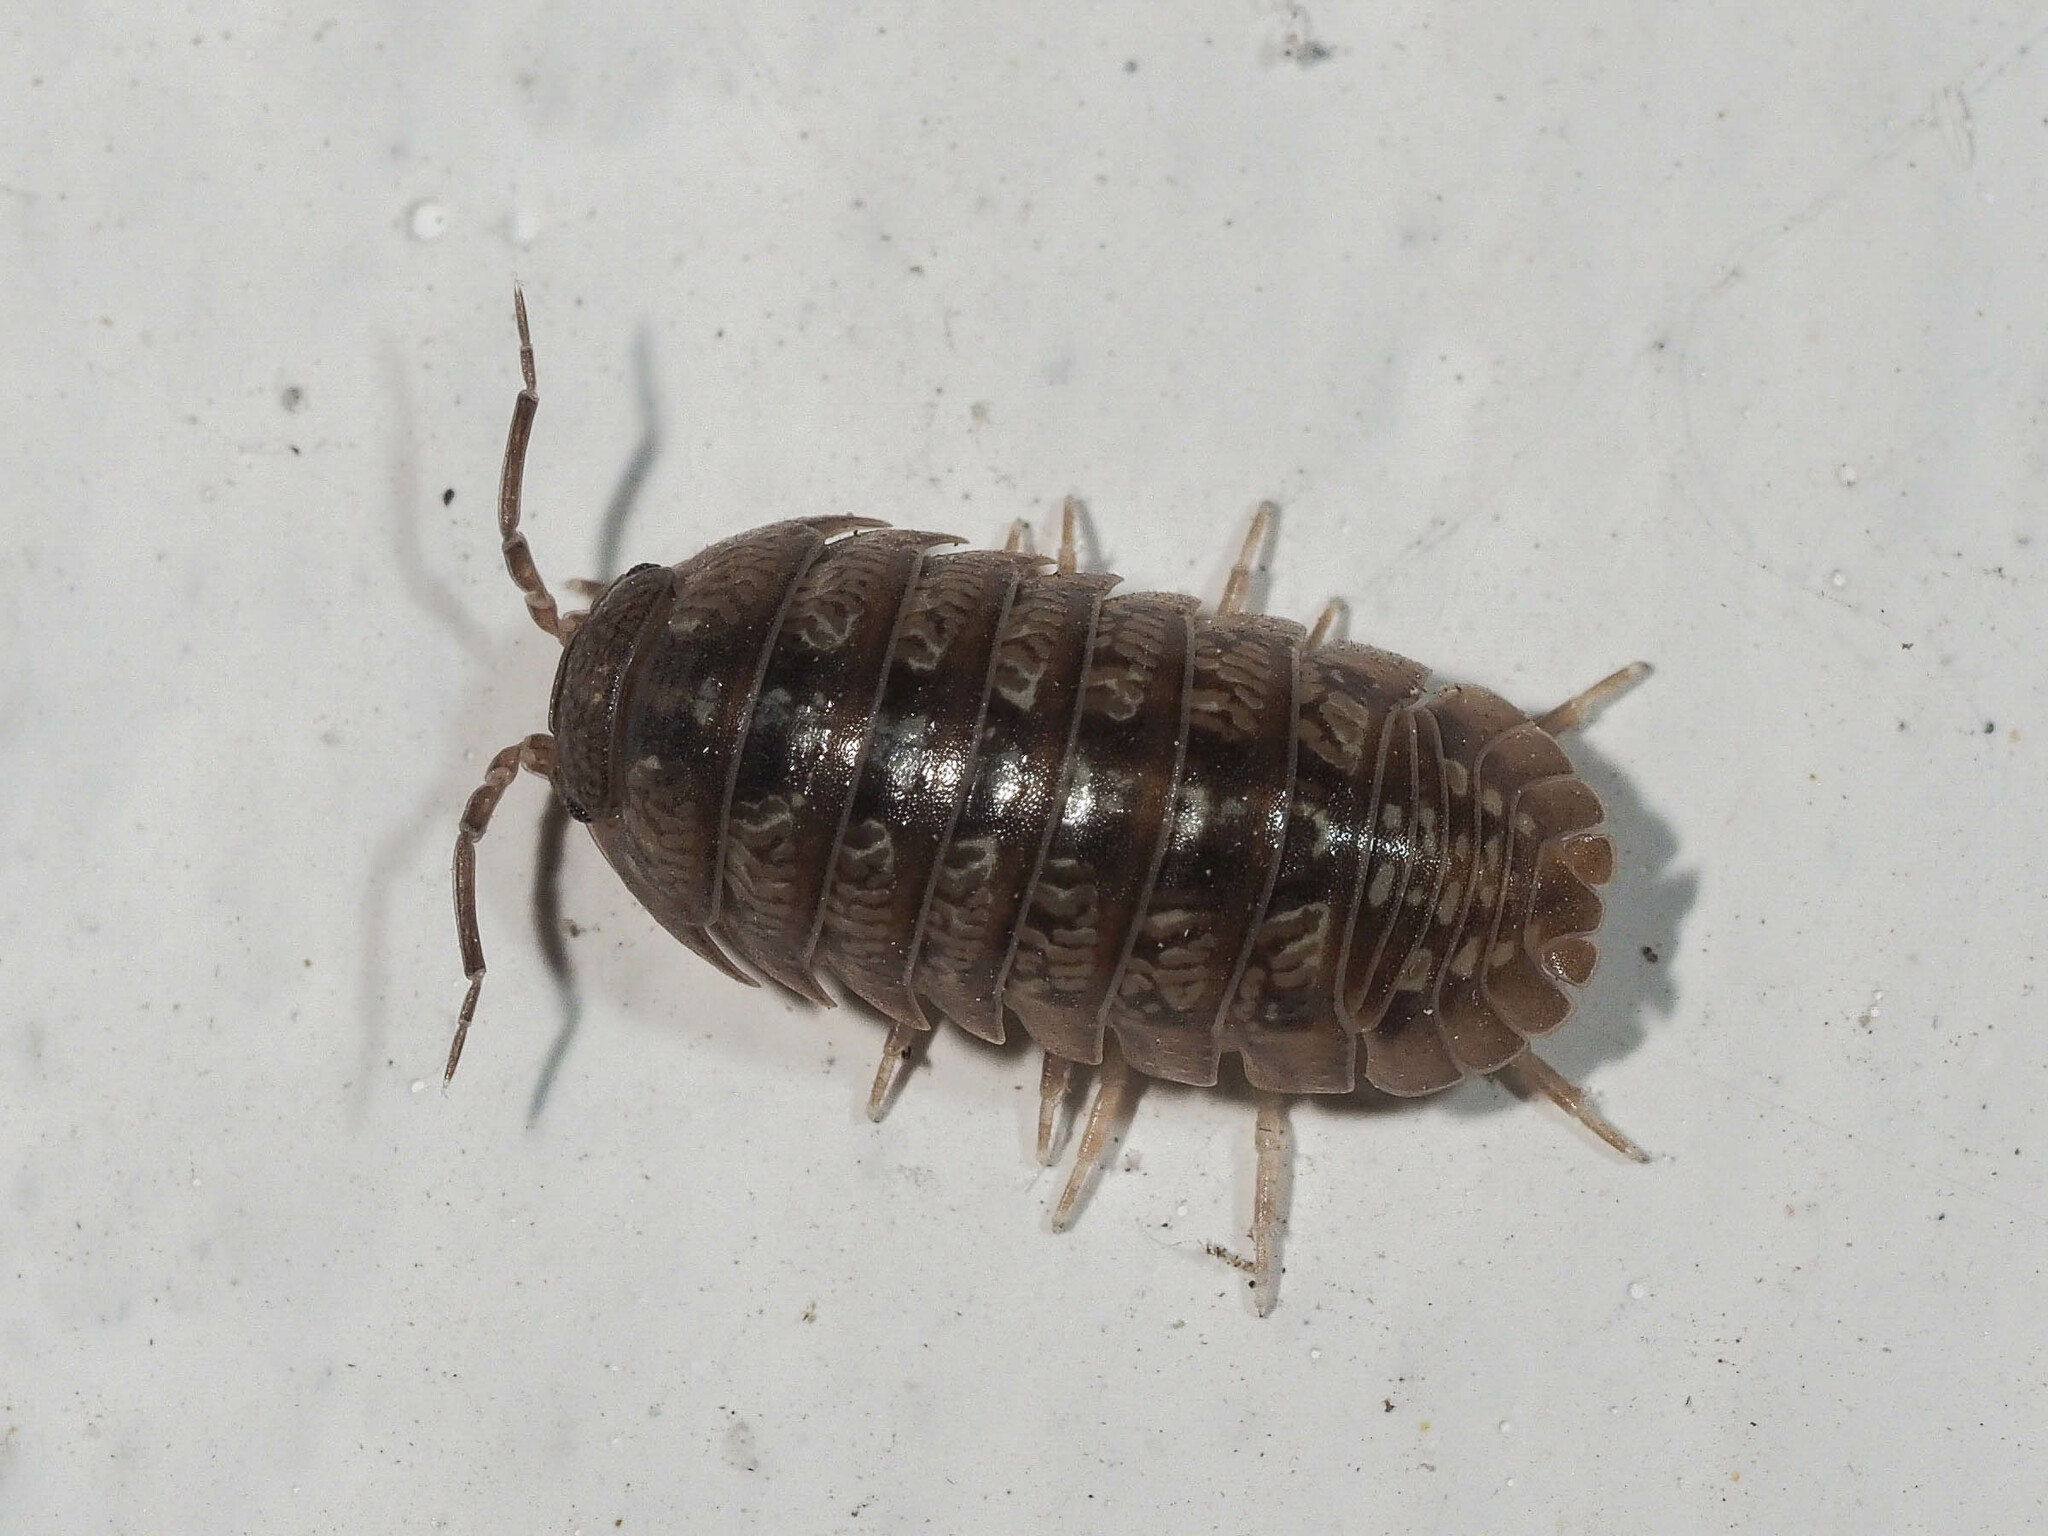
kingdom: Animalia
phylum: Arthropoda
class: Malacostraca
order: Isopoda
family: Armadillidiidae
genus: Armadillidium
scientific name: Armadillidium decorum
